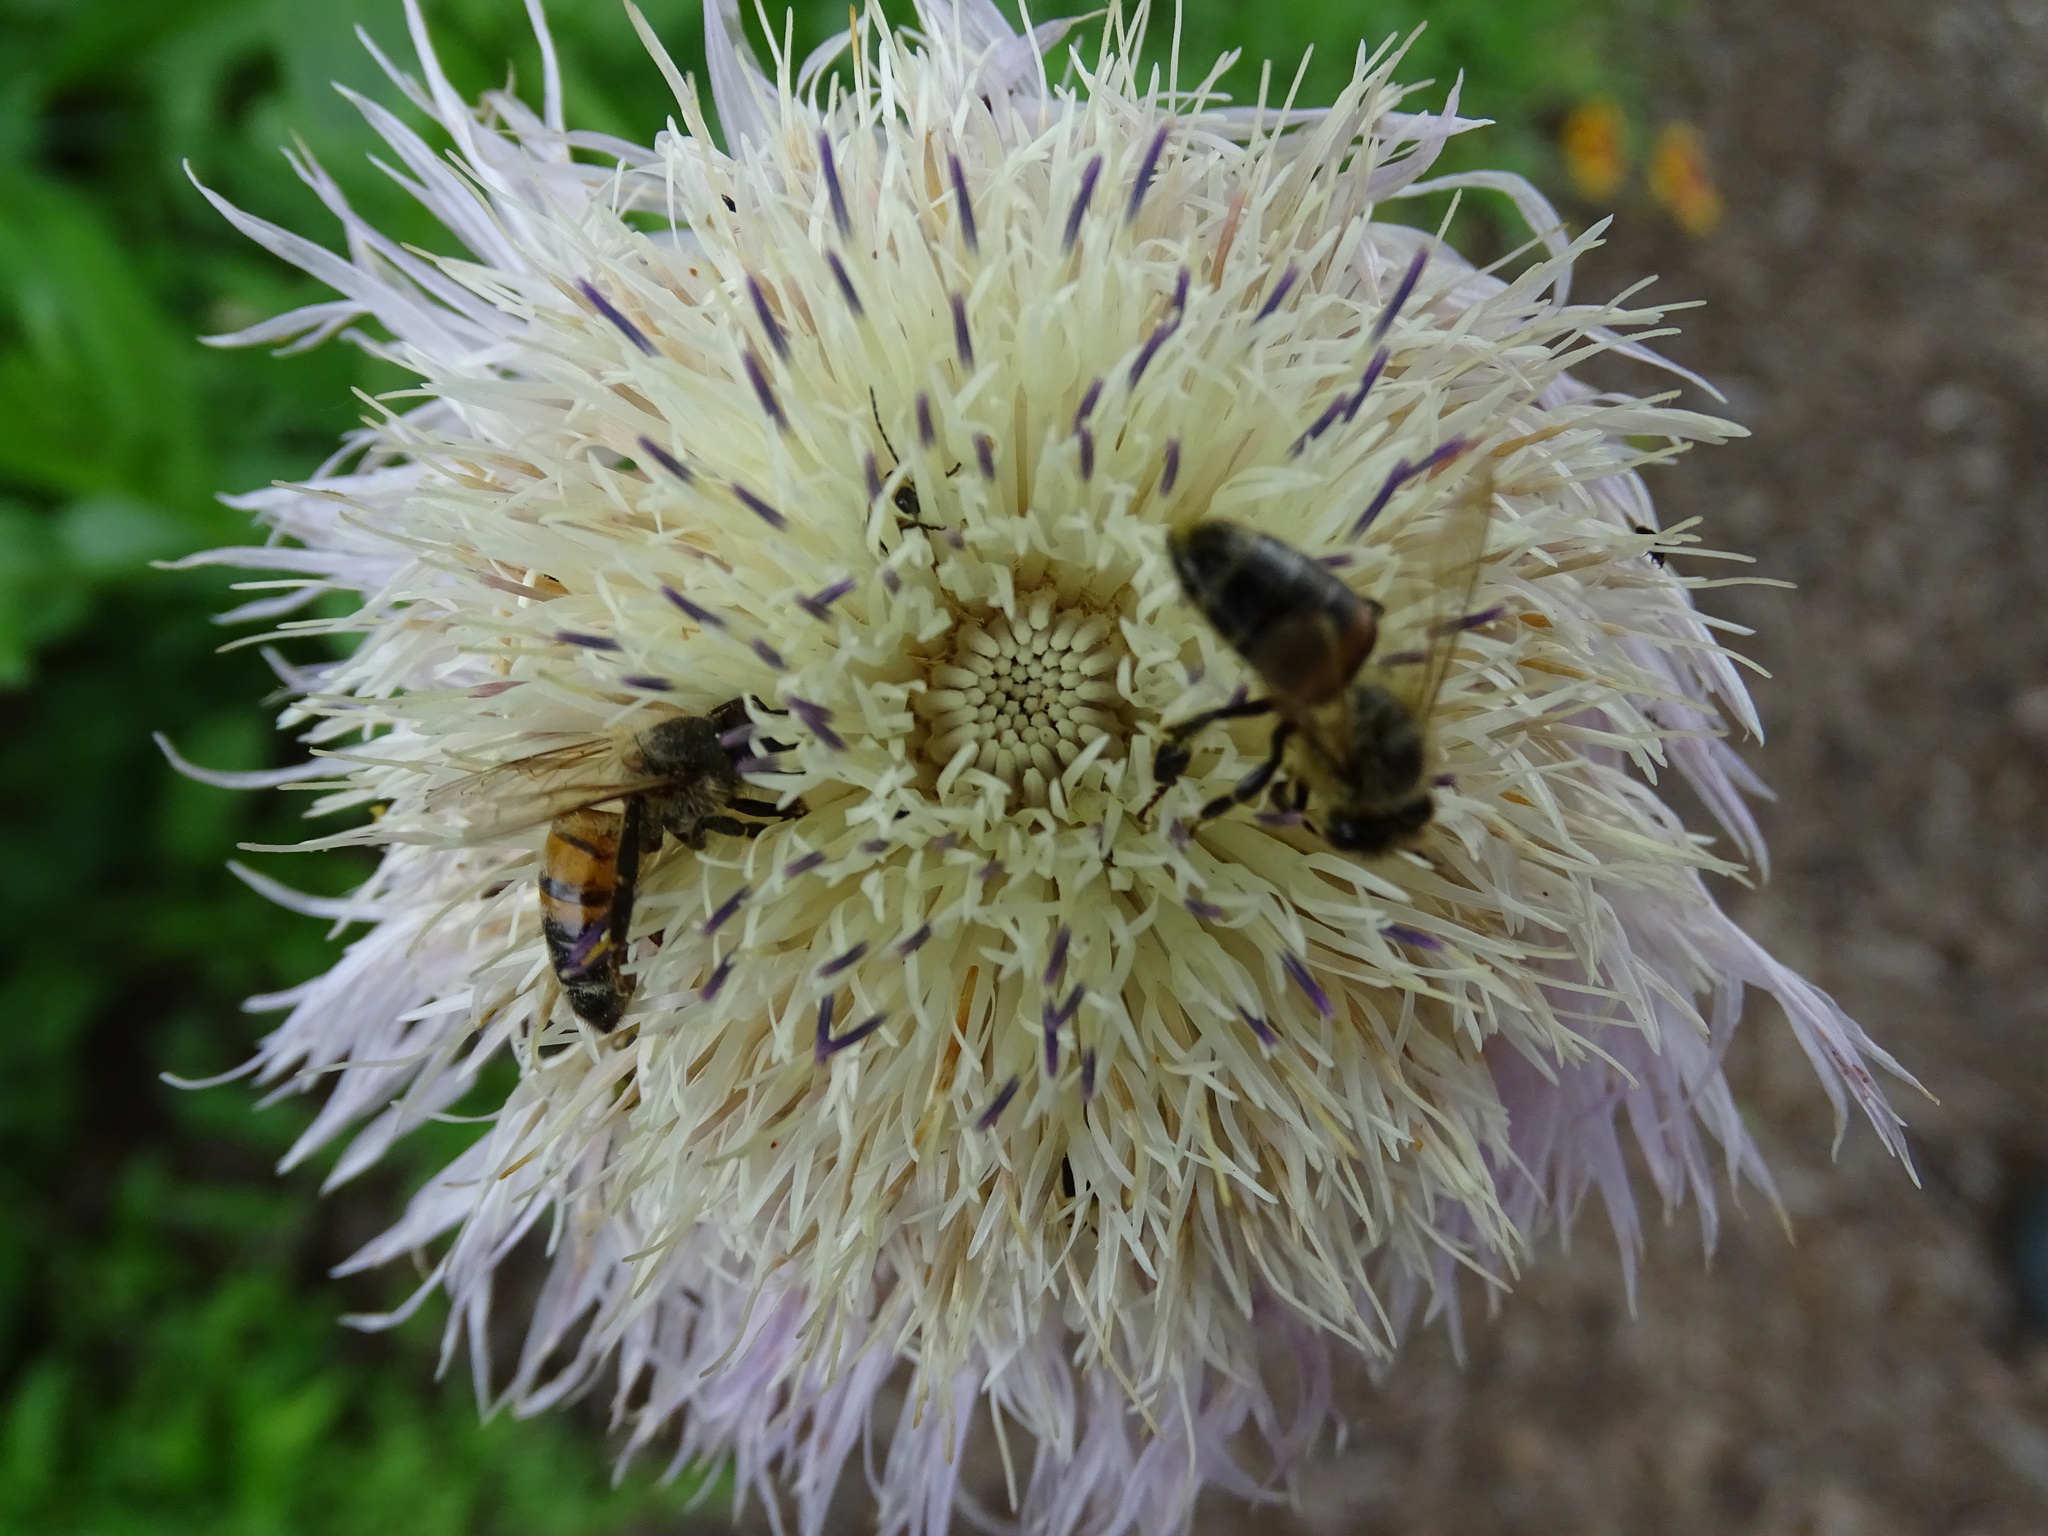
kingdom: Animalia
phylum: Arthropoda
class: Insecta
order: Hymenoptera
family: Apidae
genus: Apis
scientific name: Apis mellifera
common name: Honey bee
